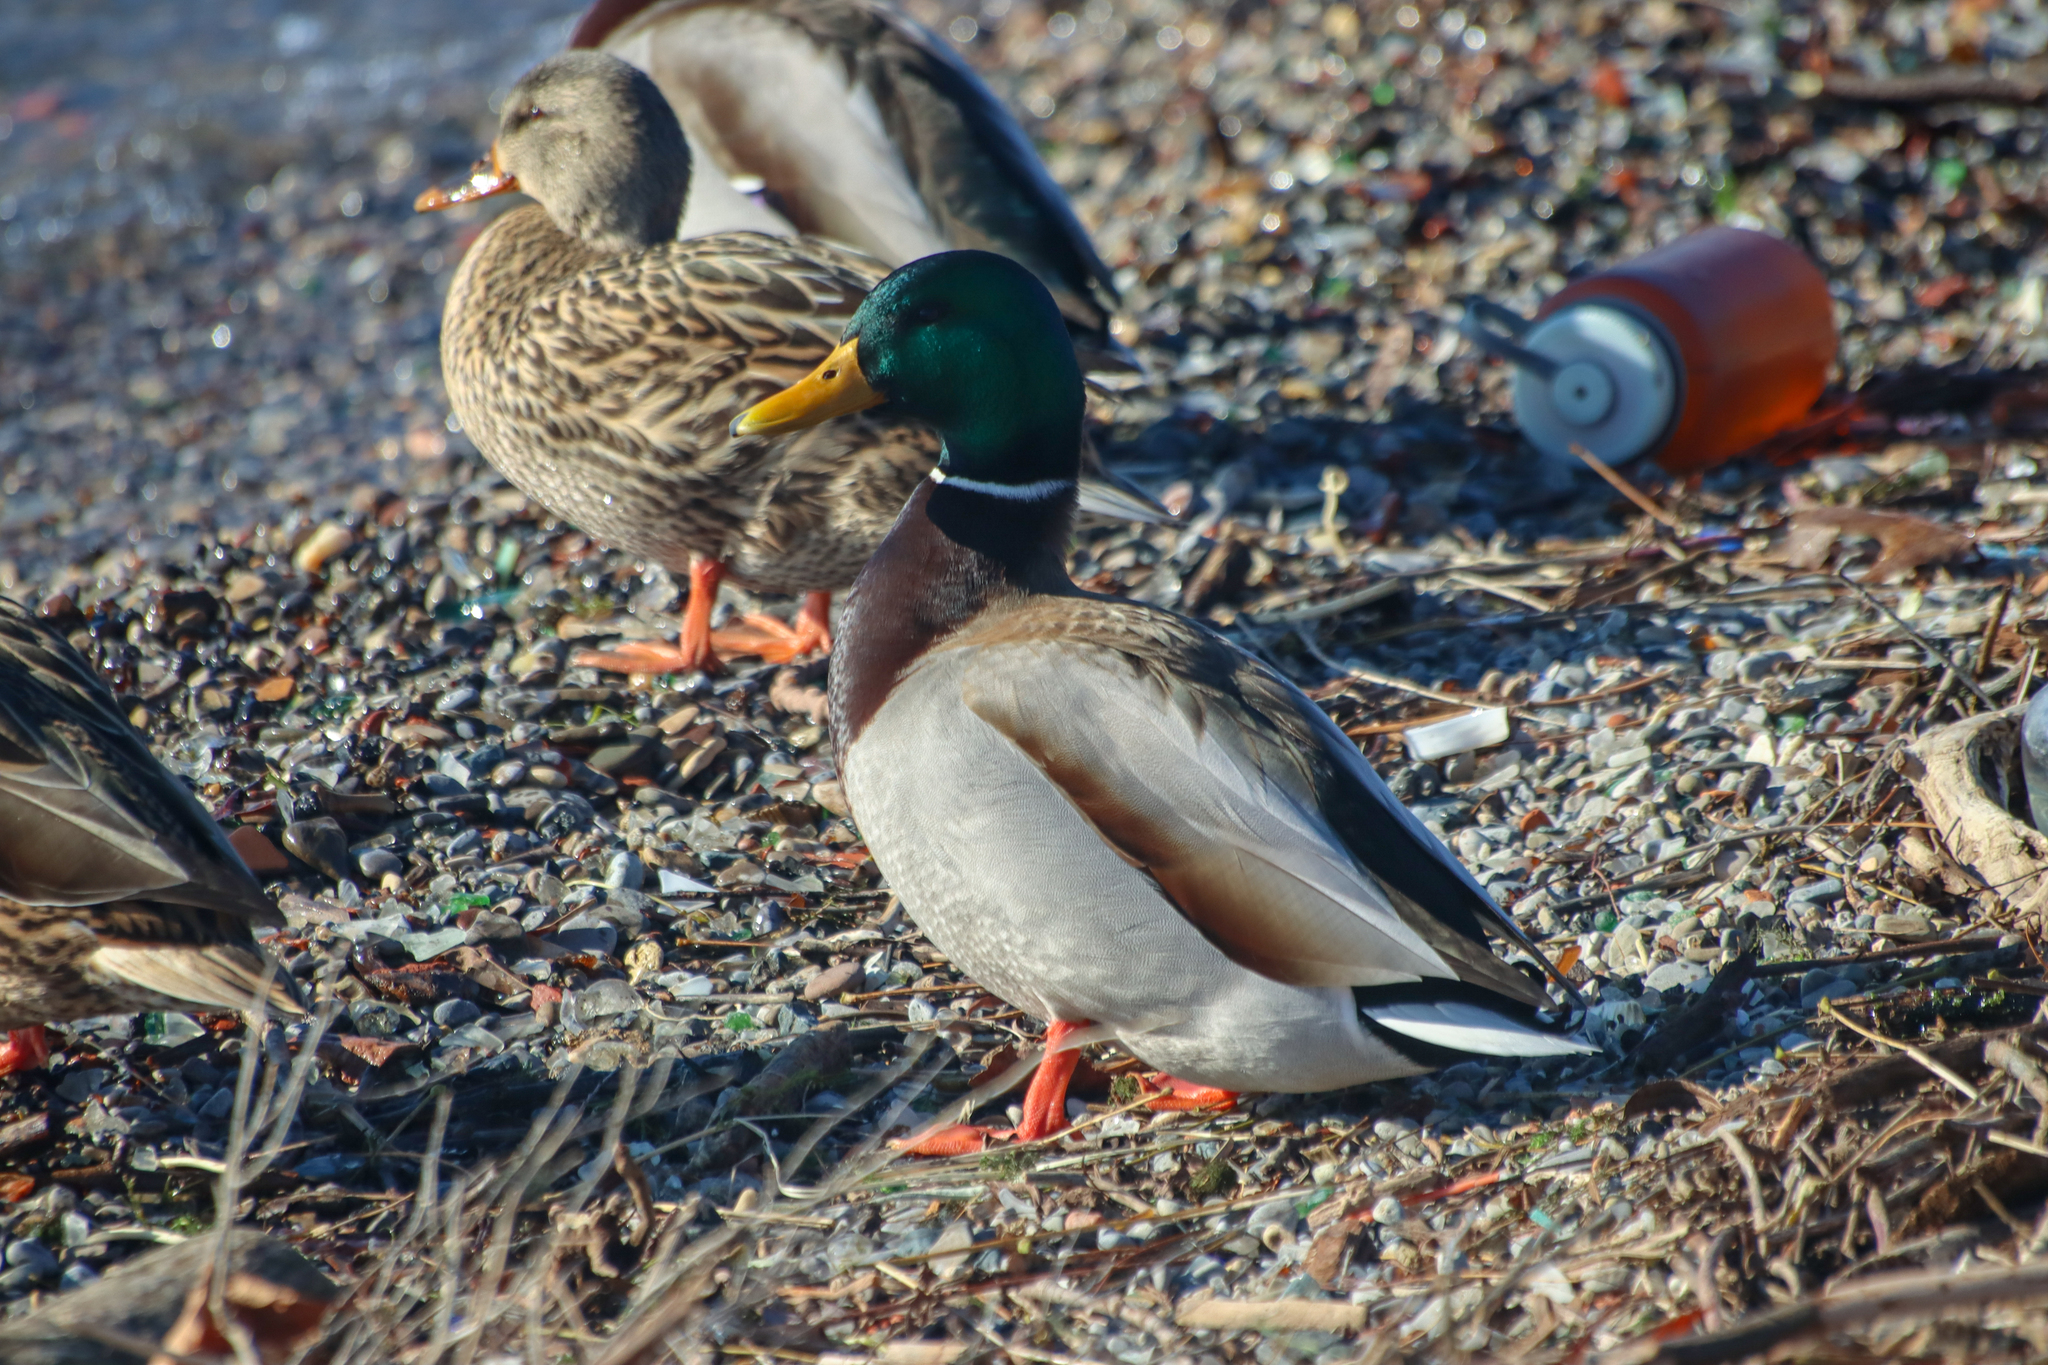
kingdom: Animalia
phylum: Chordata
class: Aves
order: Anseriformes
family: Anatidae
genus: Anas
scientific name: Anas platyrhynchos
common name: Mallard
